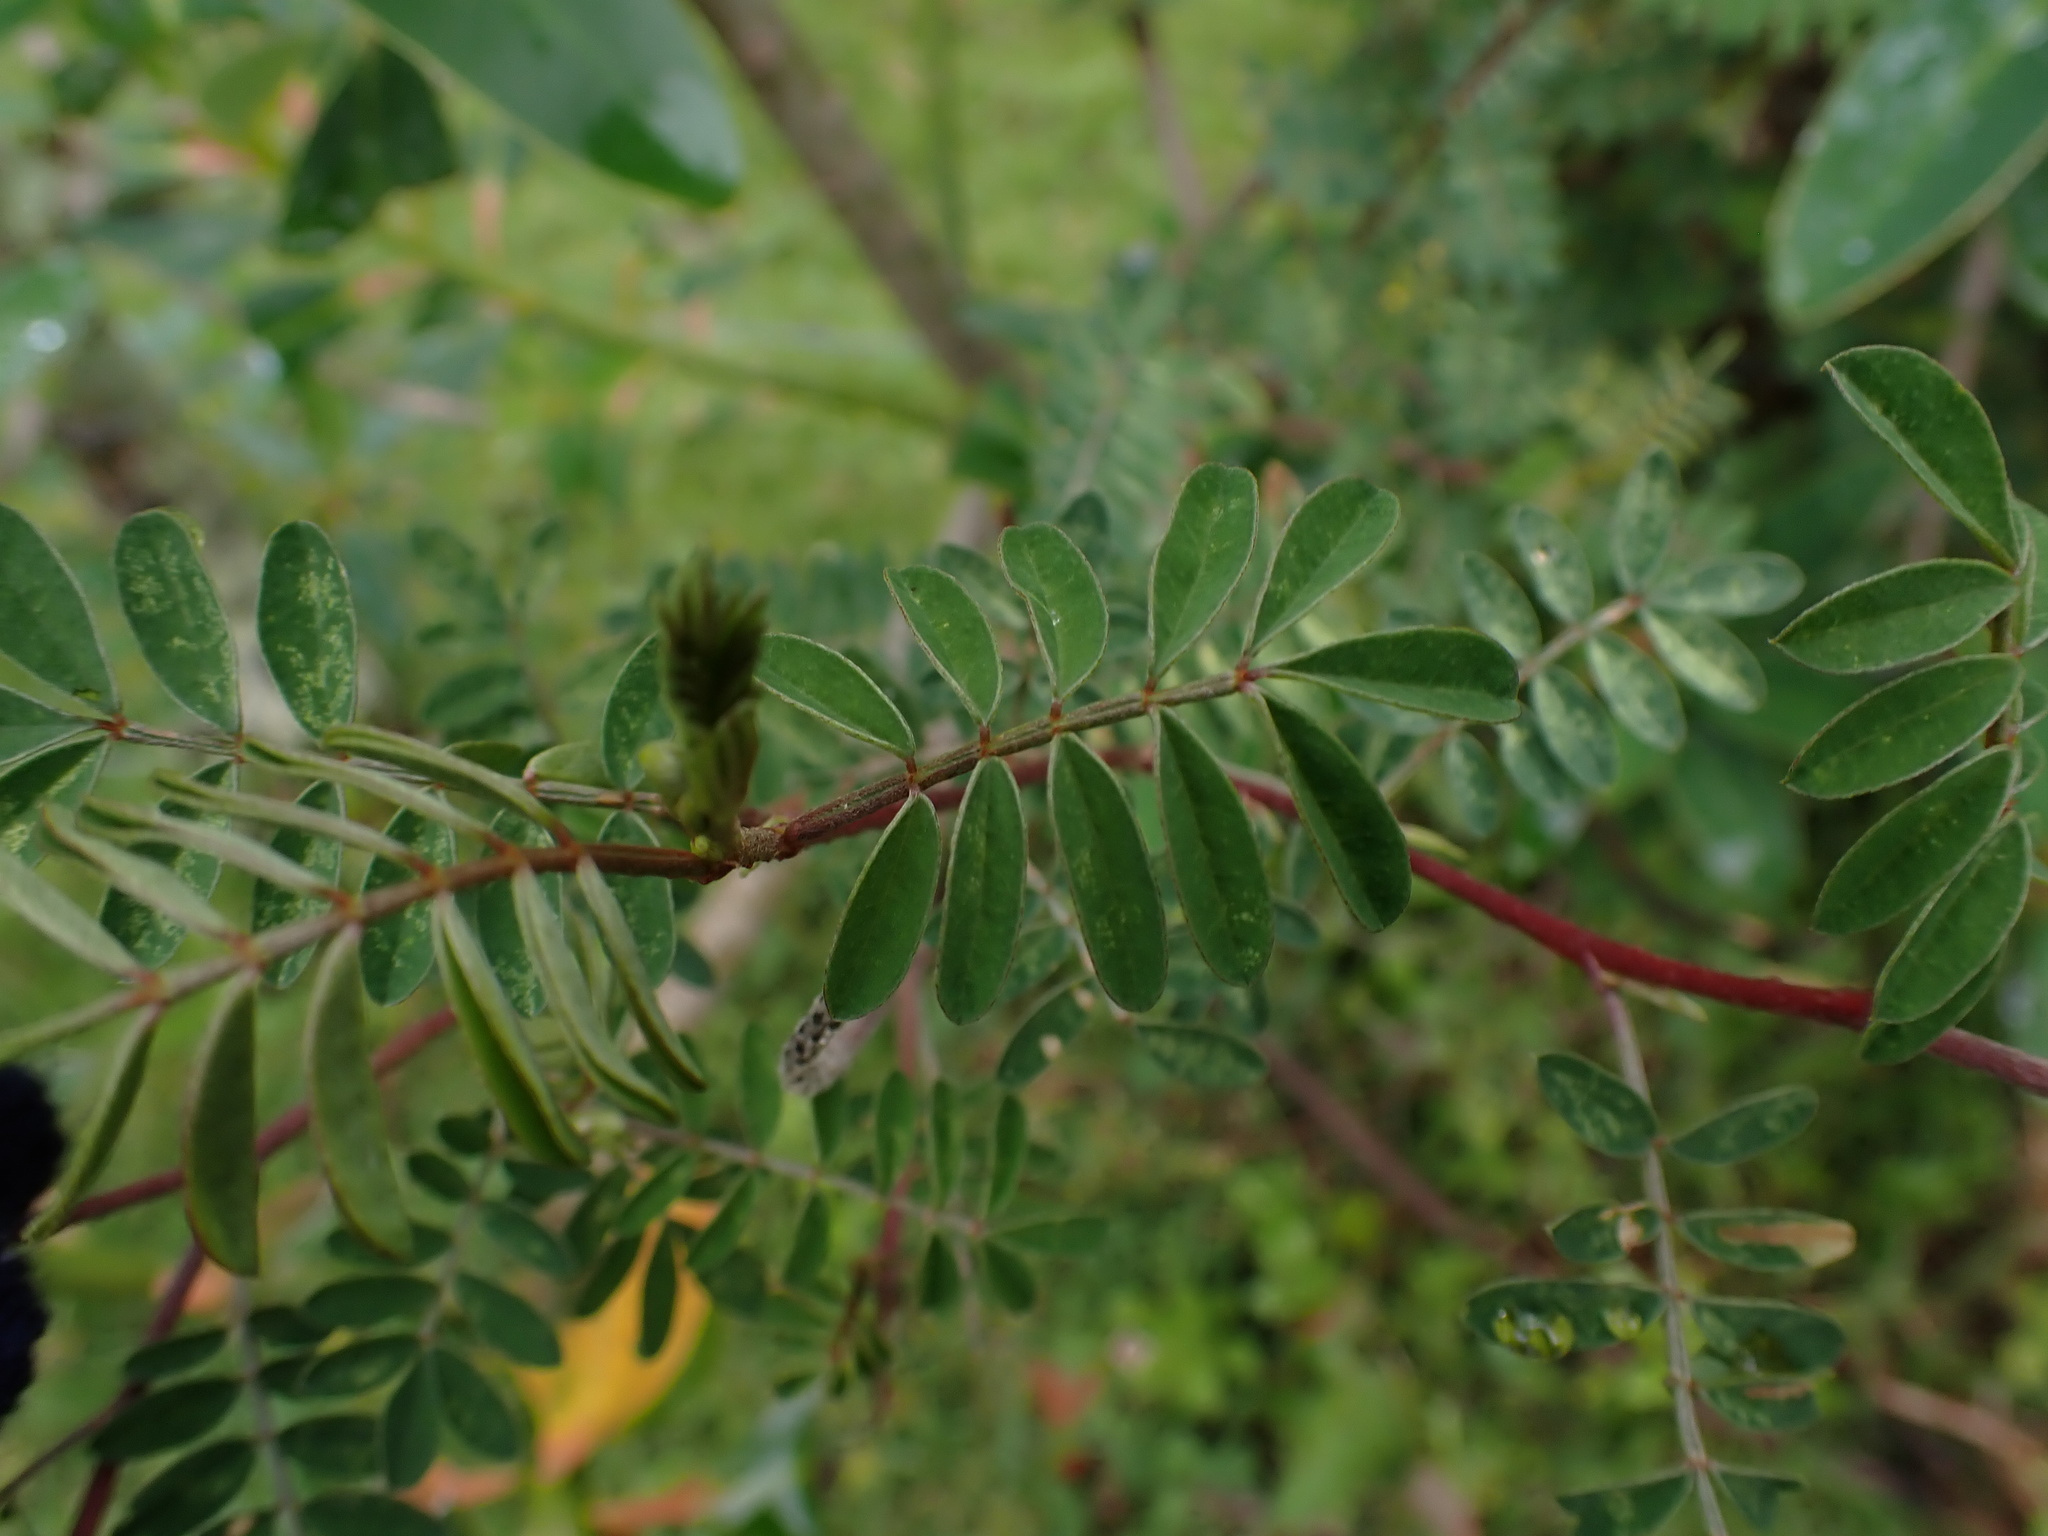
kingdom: Plantae
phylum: Tracheophyta
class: Magnoliopsida
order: Fabales
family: Fabaceae
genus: Dalea
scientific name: Dalea coerulea
